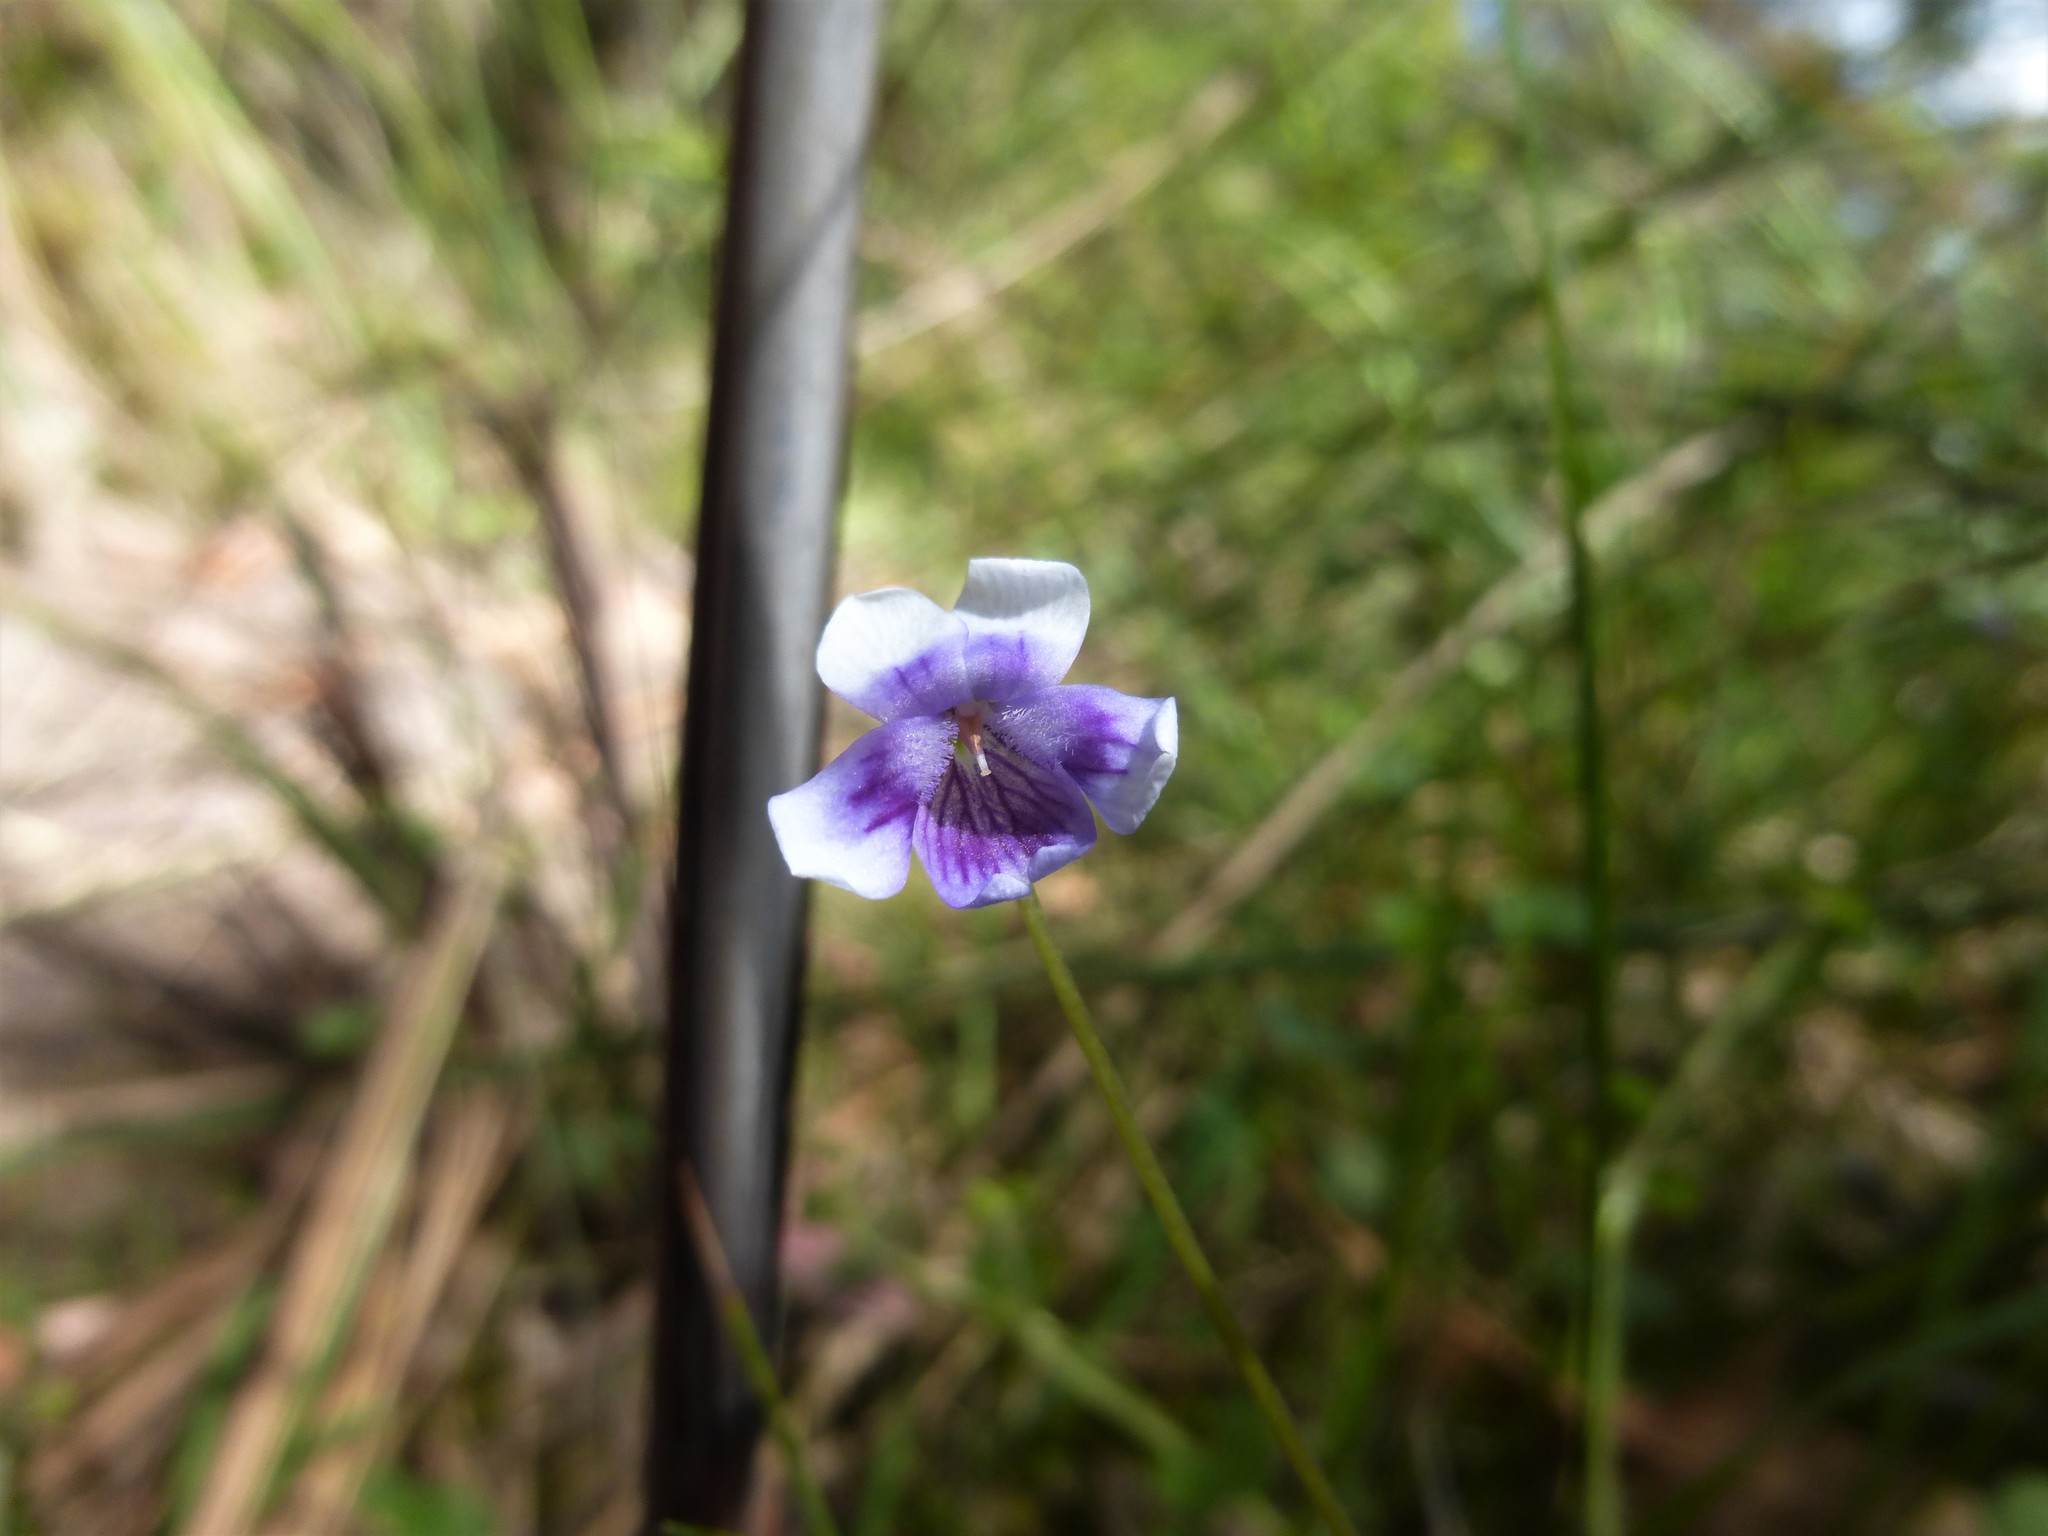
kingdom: Plantae
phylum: Tracheophyta
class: Magnoliopsida
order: Malpighiales
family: Violaceae
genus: Viola
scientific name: Viola hederacea
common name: Australian violet
